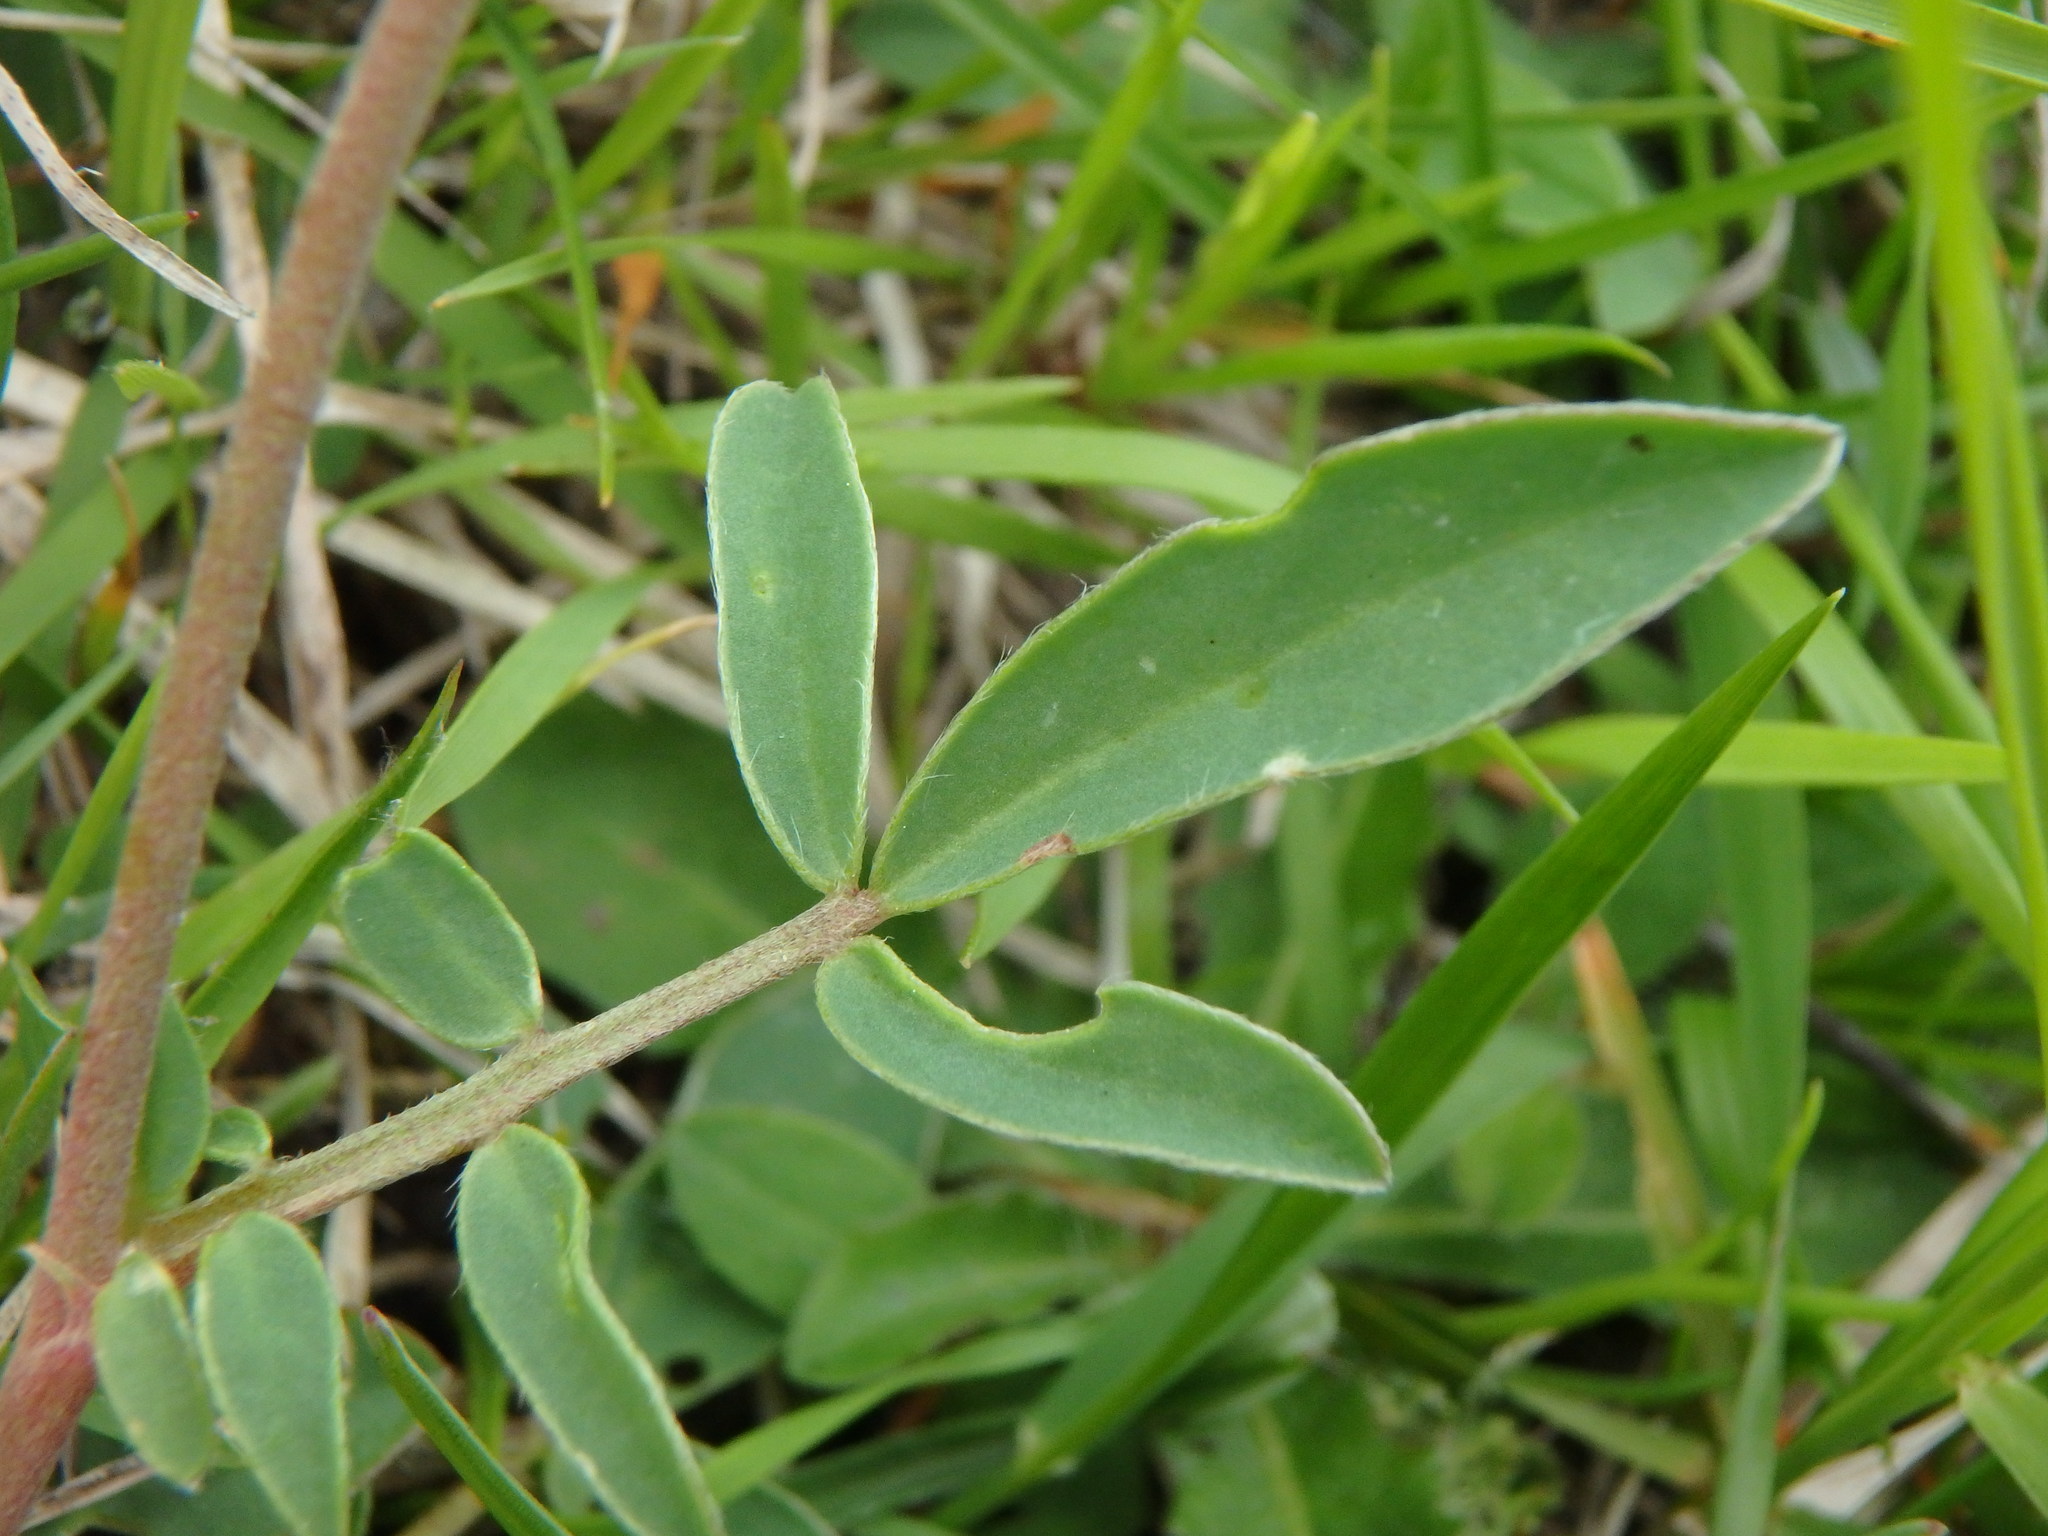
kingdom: Plantae
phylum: Tracheophyta
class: Magnoliopsida
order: Fabales
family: Fabaceae
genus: Anthyllis
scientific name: Anthyllis vulneraria
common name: Kidney vetch
